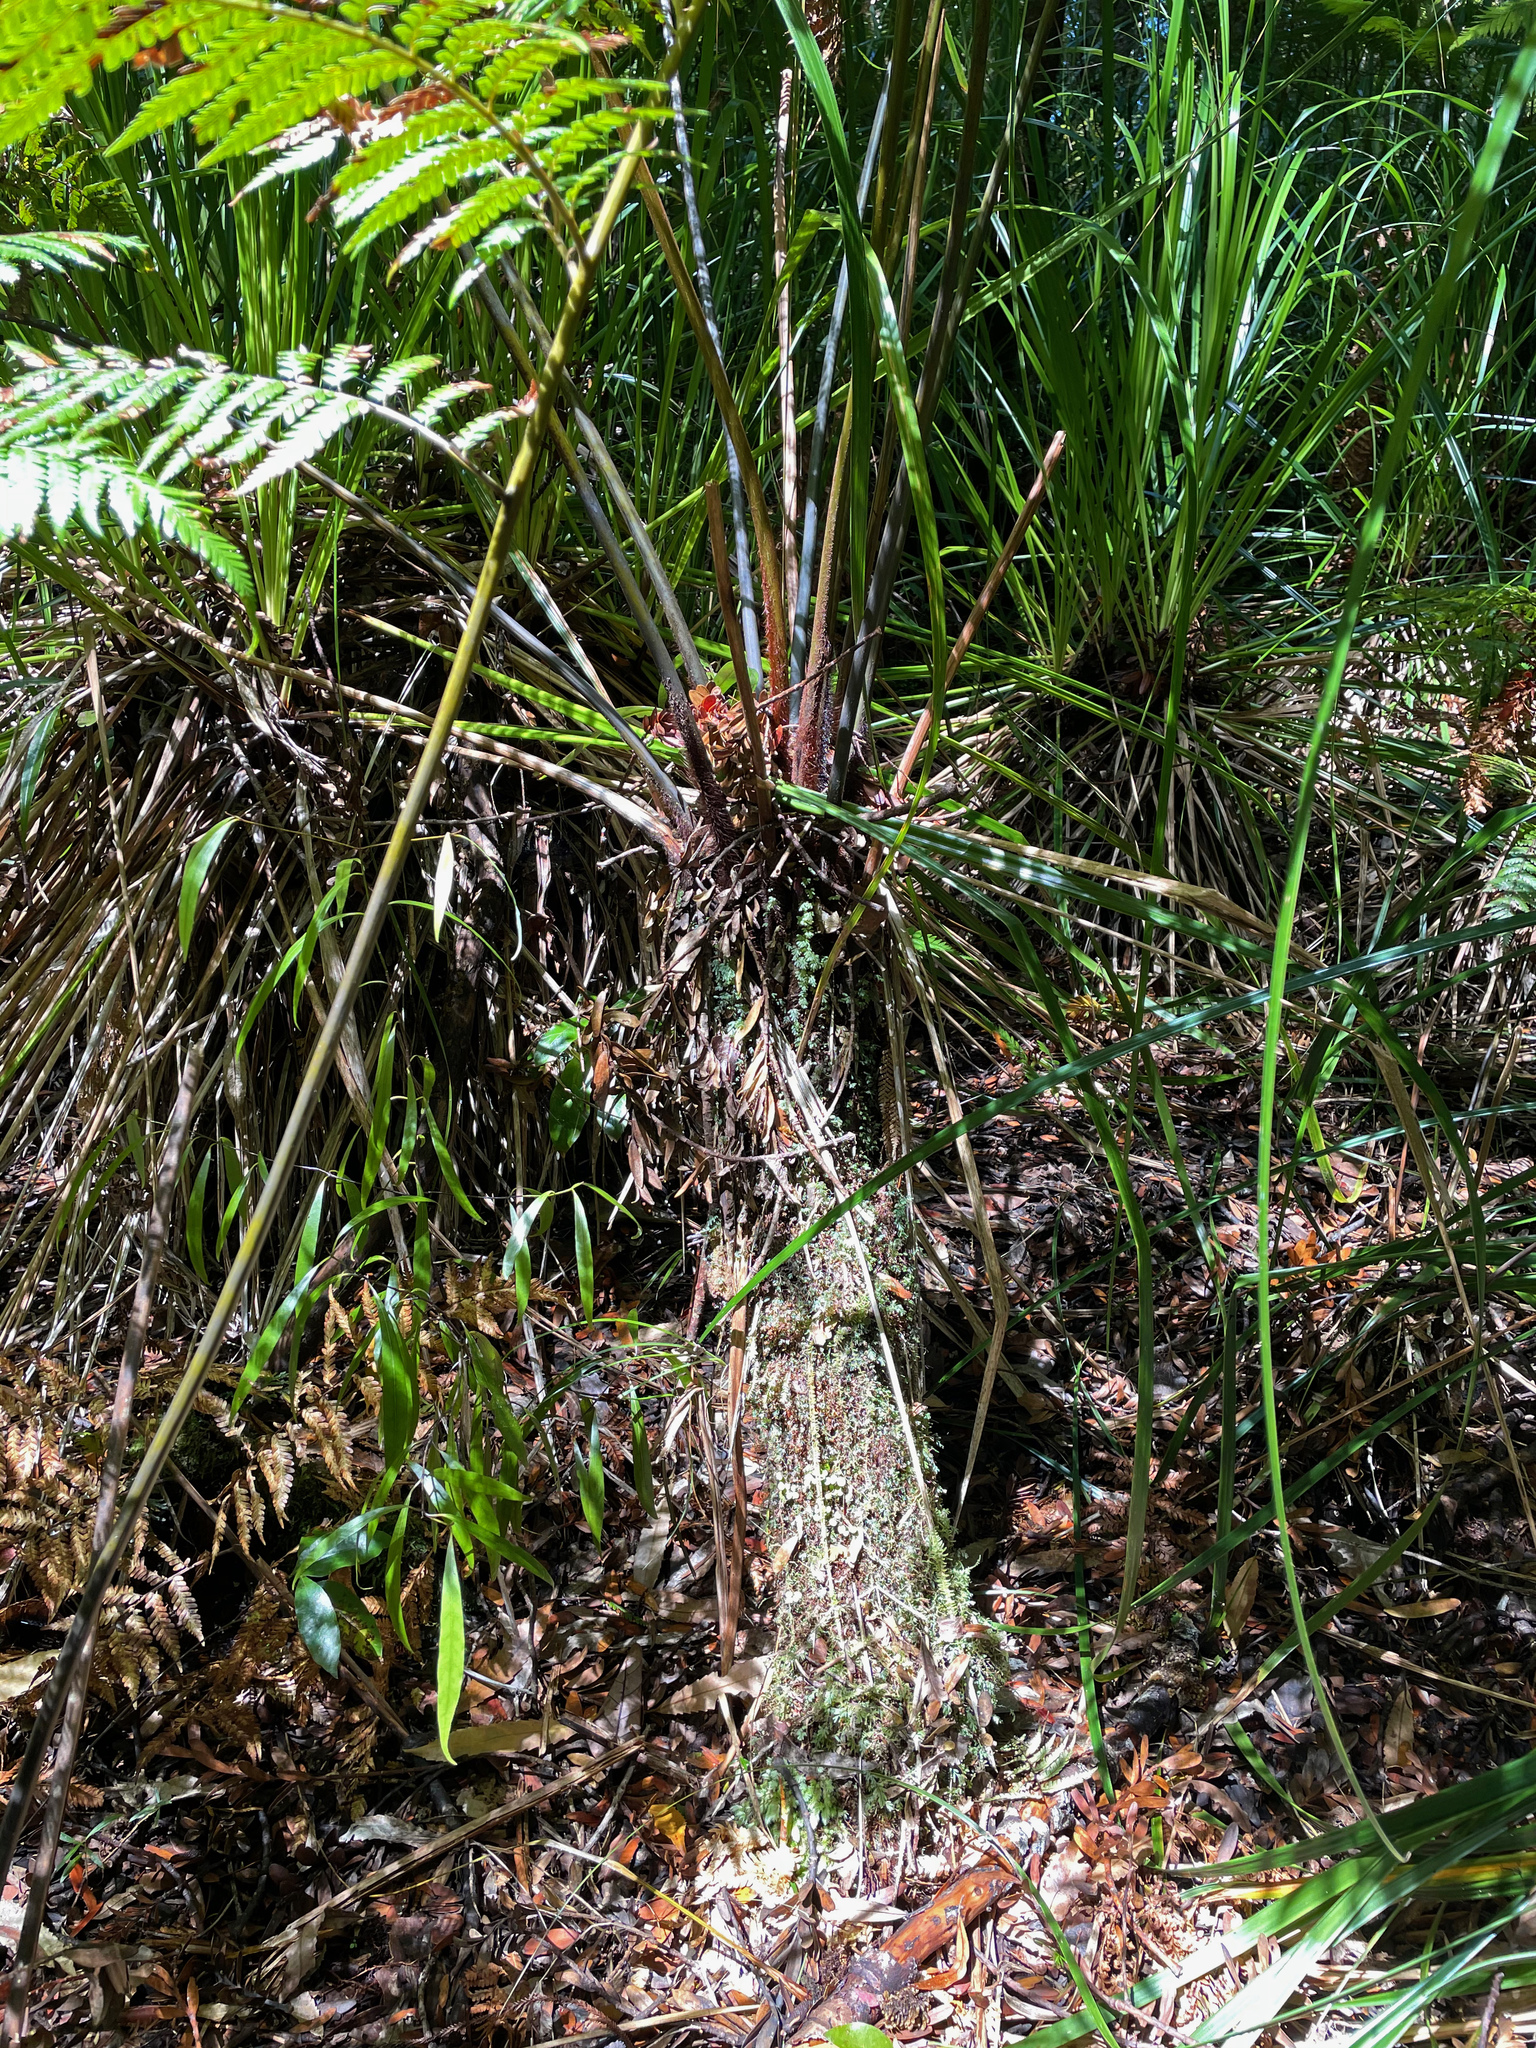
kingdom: Plantae
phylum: Tracheophyta
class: Polypodiopsida
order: Cyatheales
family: Dicksoniaceae
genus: Dicksonia
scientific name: Dicksonia lanata
